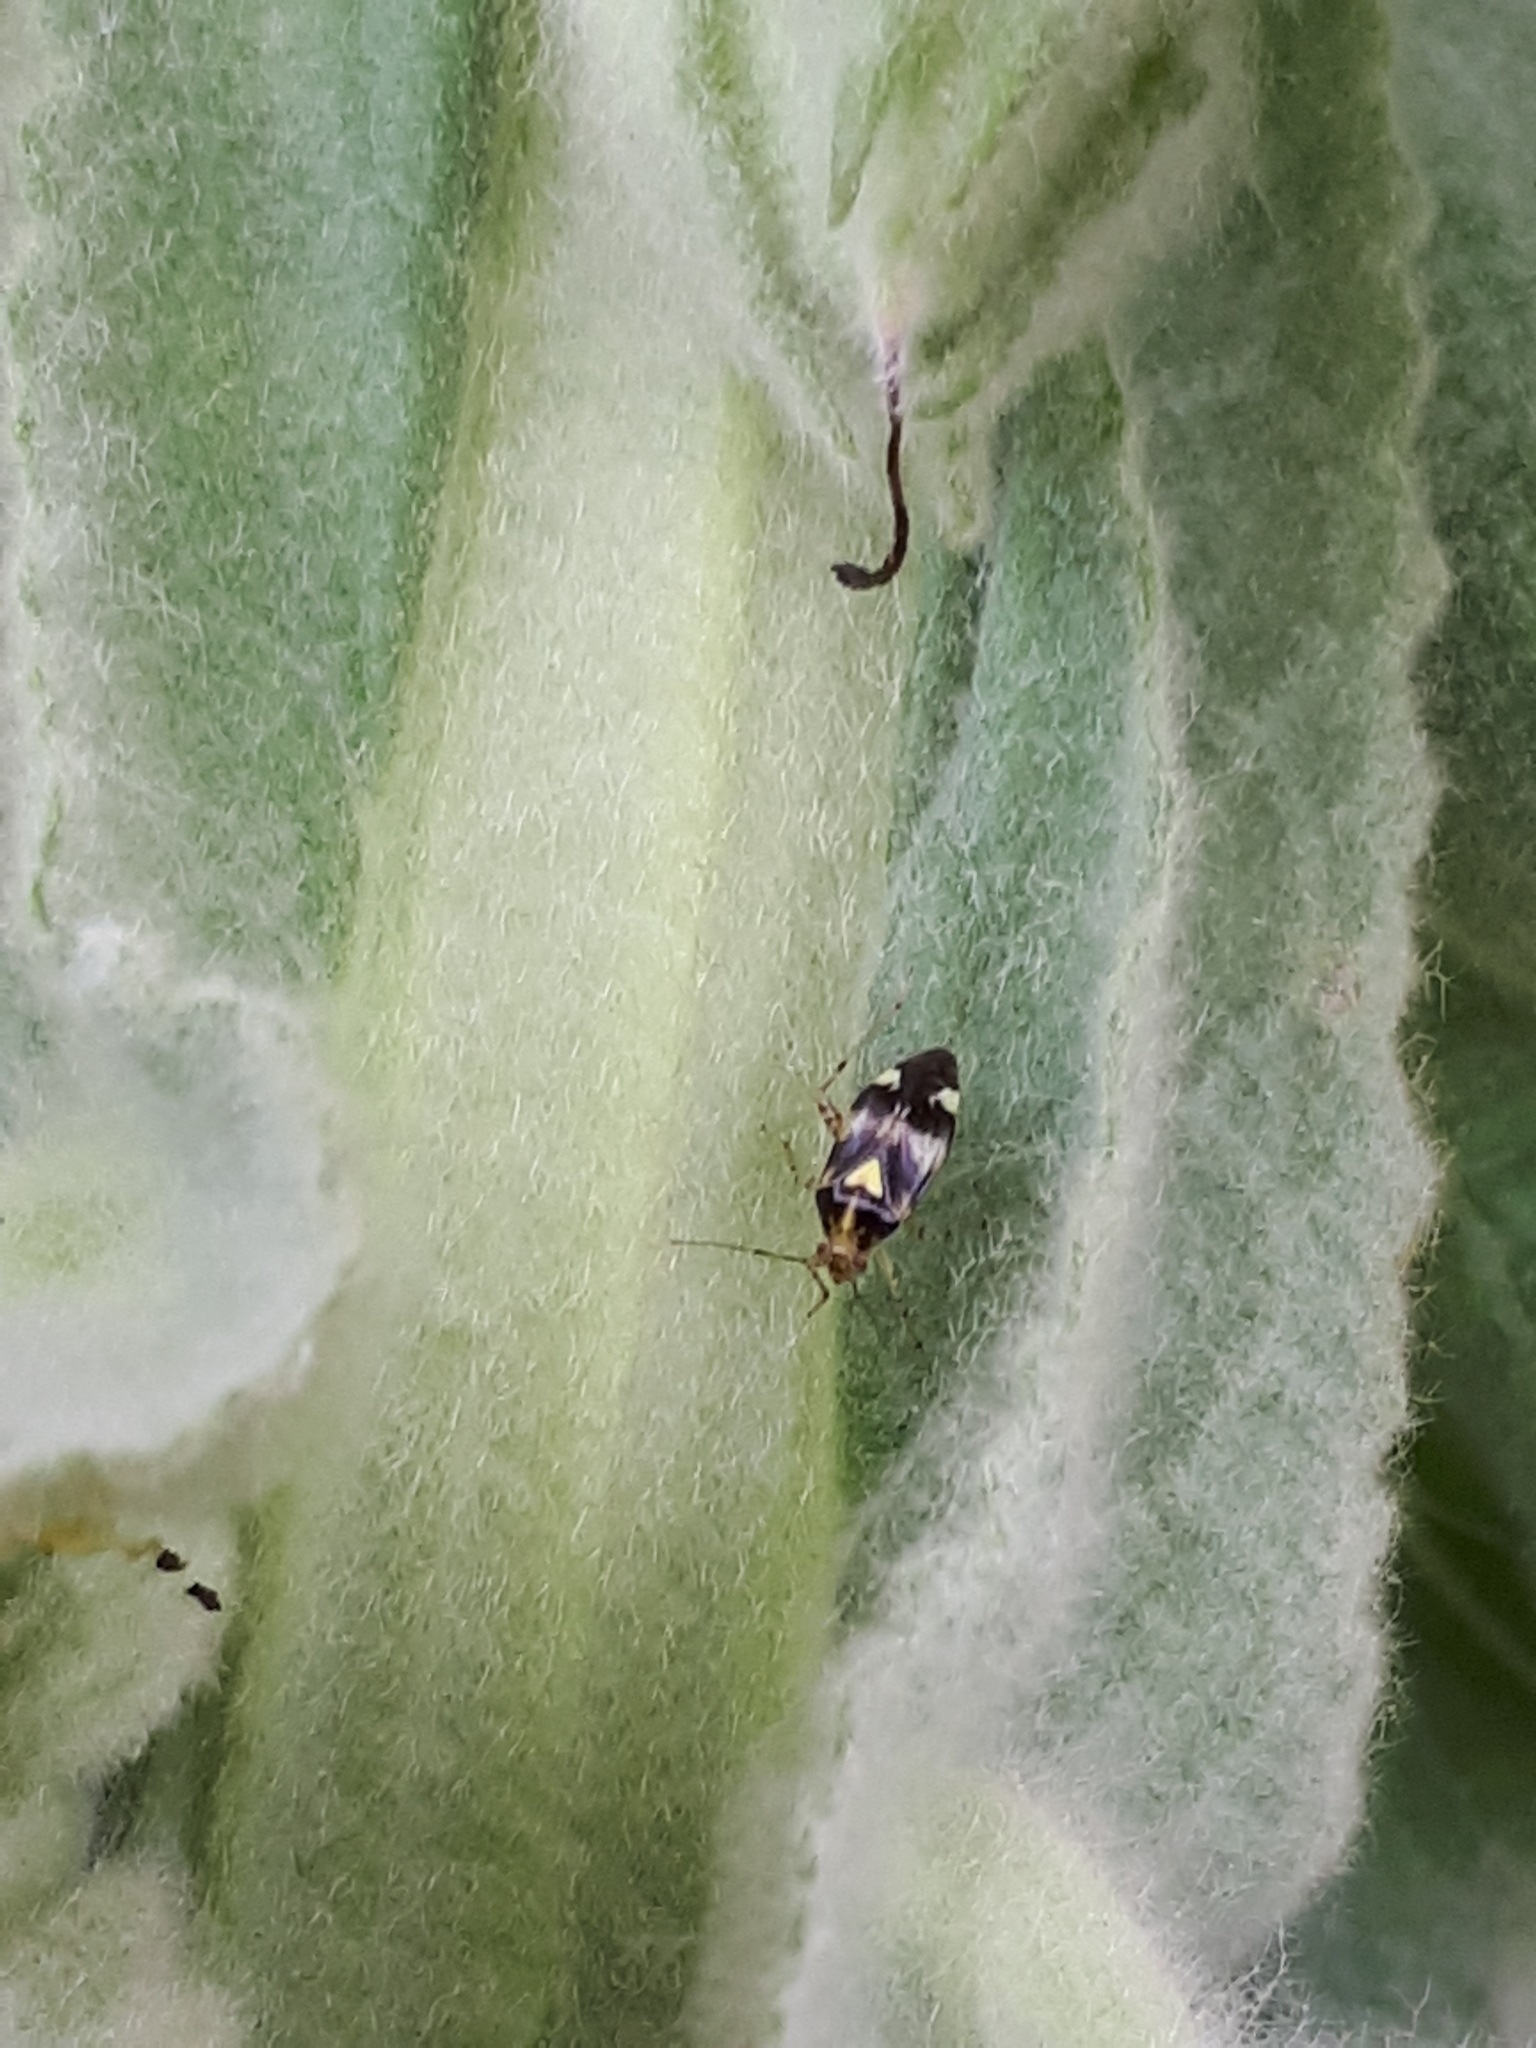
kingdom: Animalia
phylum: Arthropoda
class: Insecta
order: Hemiptera
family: Miridae
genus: Liocoris
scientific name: Liocoris tripustulatus
